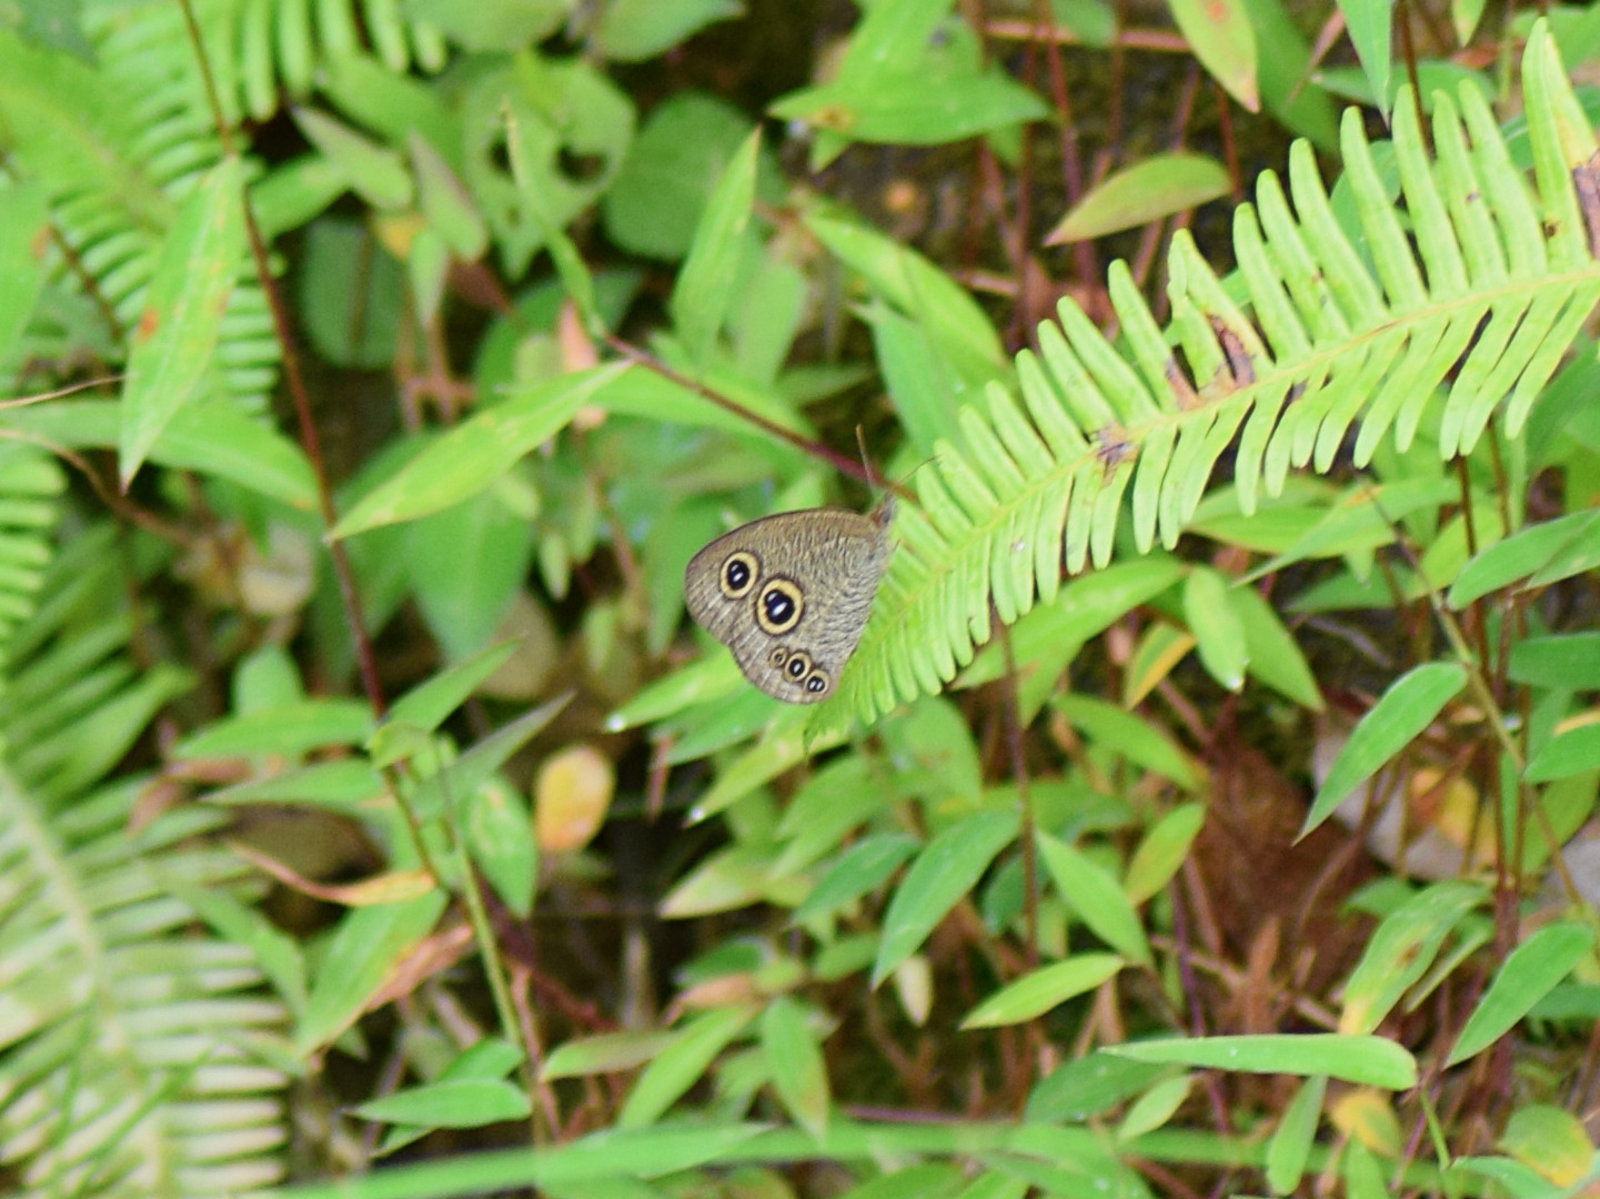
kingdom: Animalia
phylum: Arthropoda
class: Insecta
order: Lepidoptera
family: Nymphalidae
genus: Ypthima
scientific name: Ypthima nikaea
